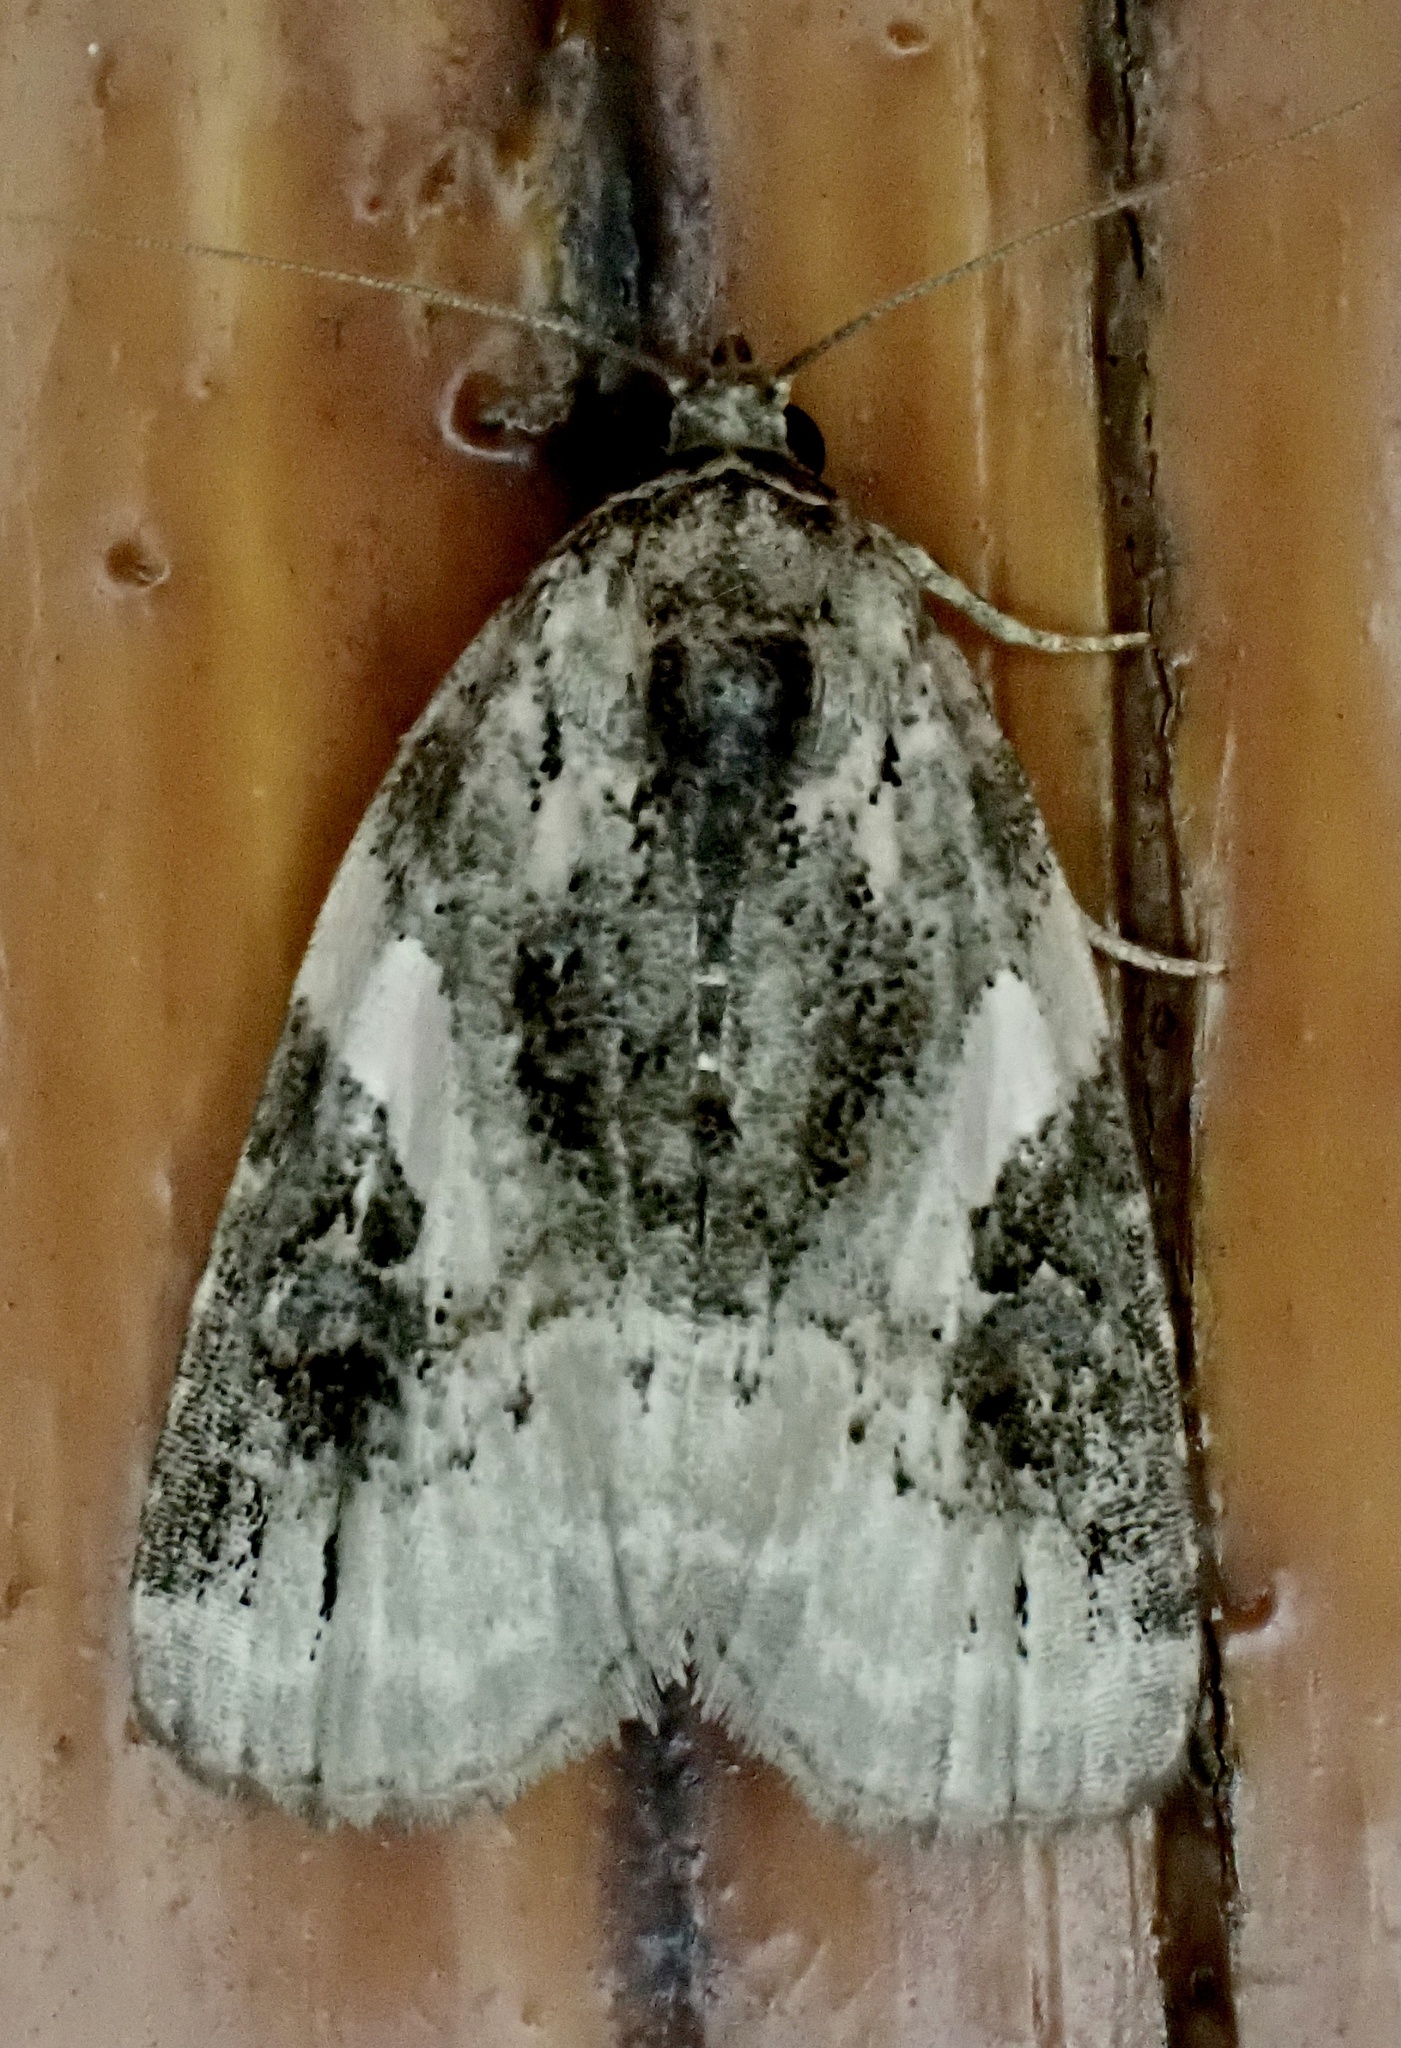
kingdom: Animalia
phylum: Arthropoda
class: Insecta
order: Lepidoptera
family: Noctuidae
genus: Pseudeustrotia
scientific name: Pseudeustrotia carneola
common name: Pink-barred lithacodia moth
